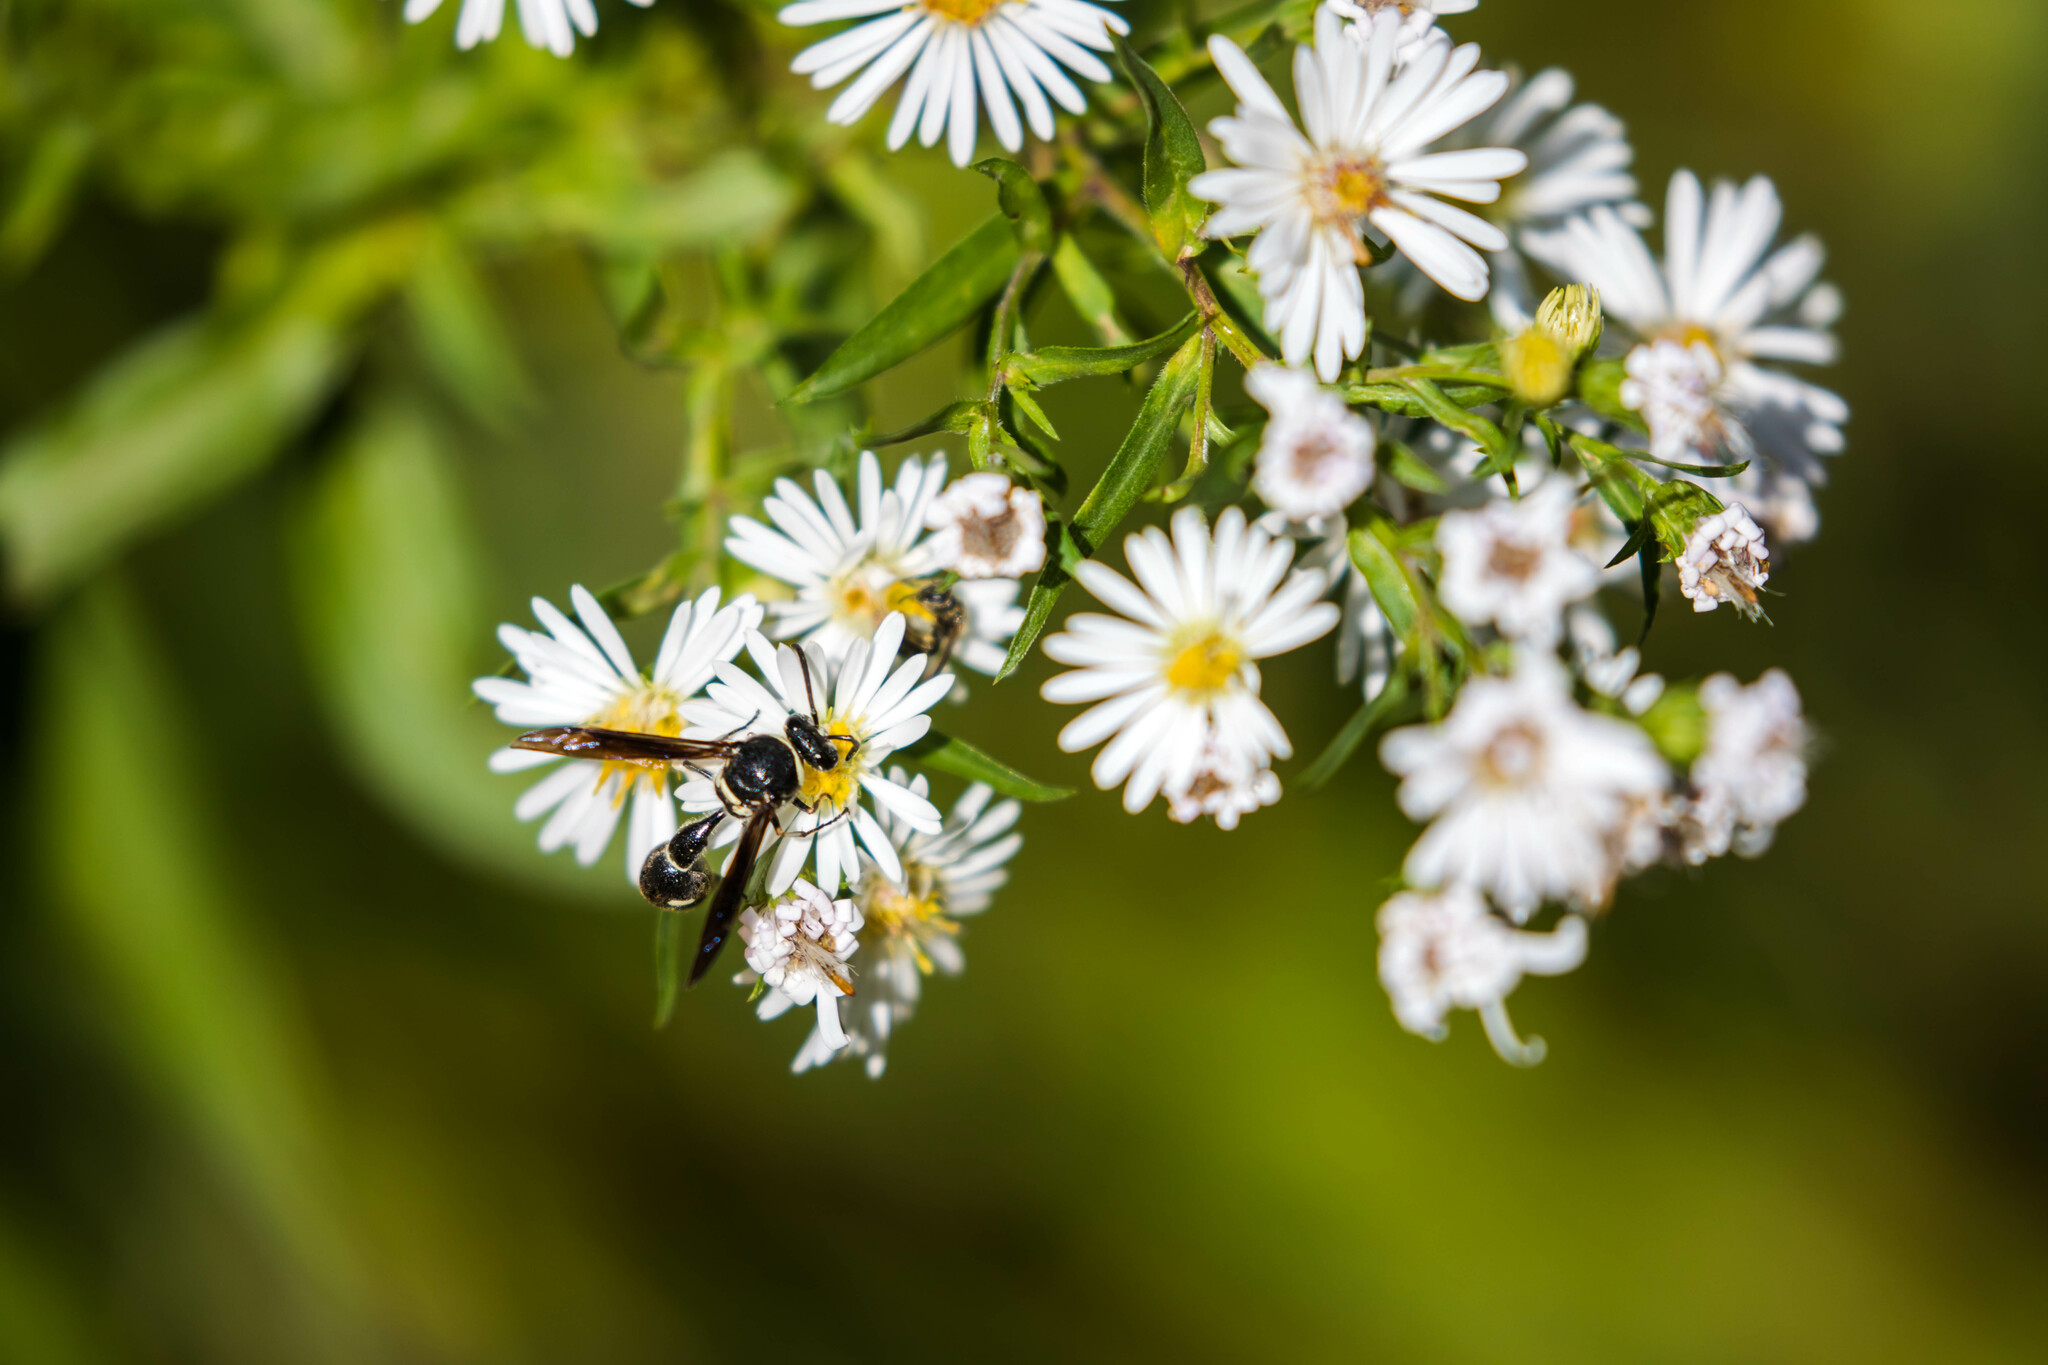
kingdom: Animalia
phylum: Arthropoda
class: Insecta
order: Hymenoptera
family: Vespidae
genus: Eumenes
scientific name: Eumenes fraternus
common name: Fraternal potter wasp
